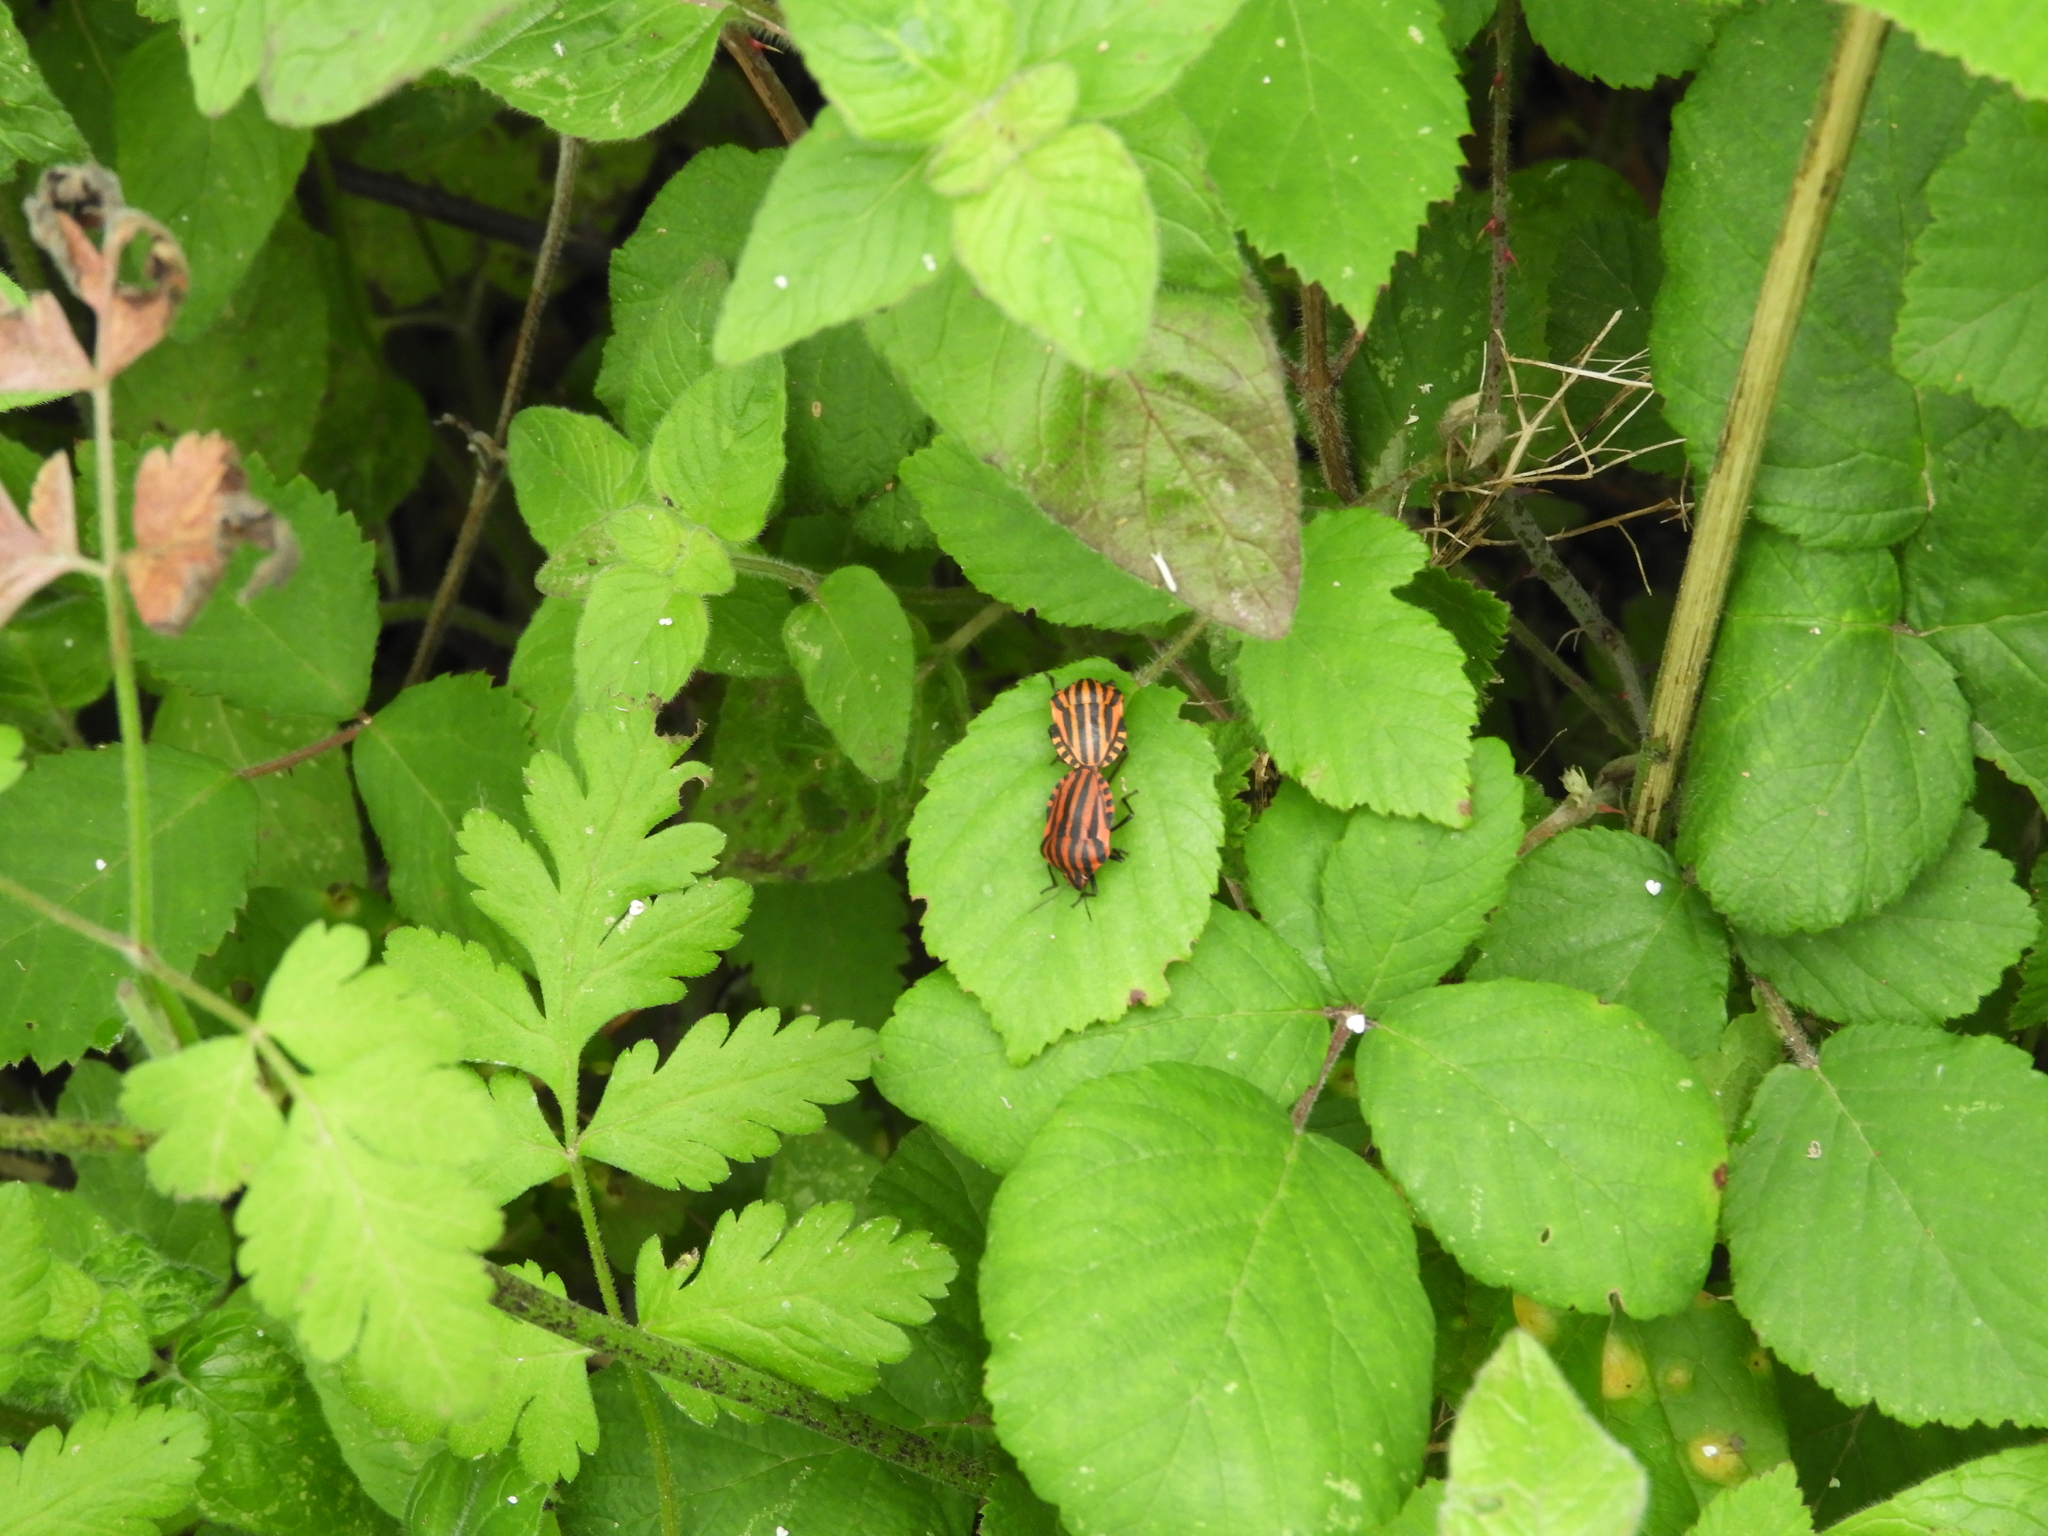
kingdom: Animalia
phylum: Arthropoda
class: Insecta
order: Hemiptera
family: Pentatomidae
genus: Graphosoma
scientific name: Graphosoma italicum
